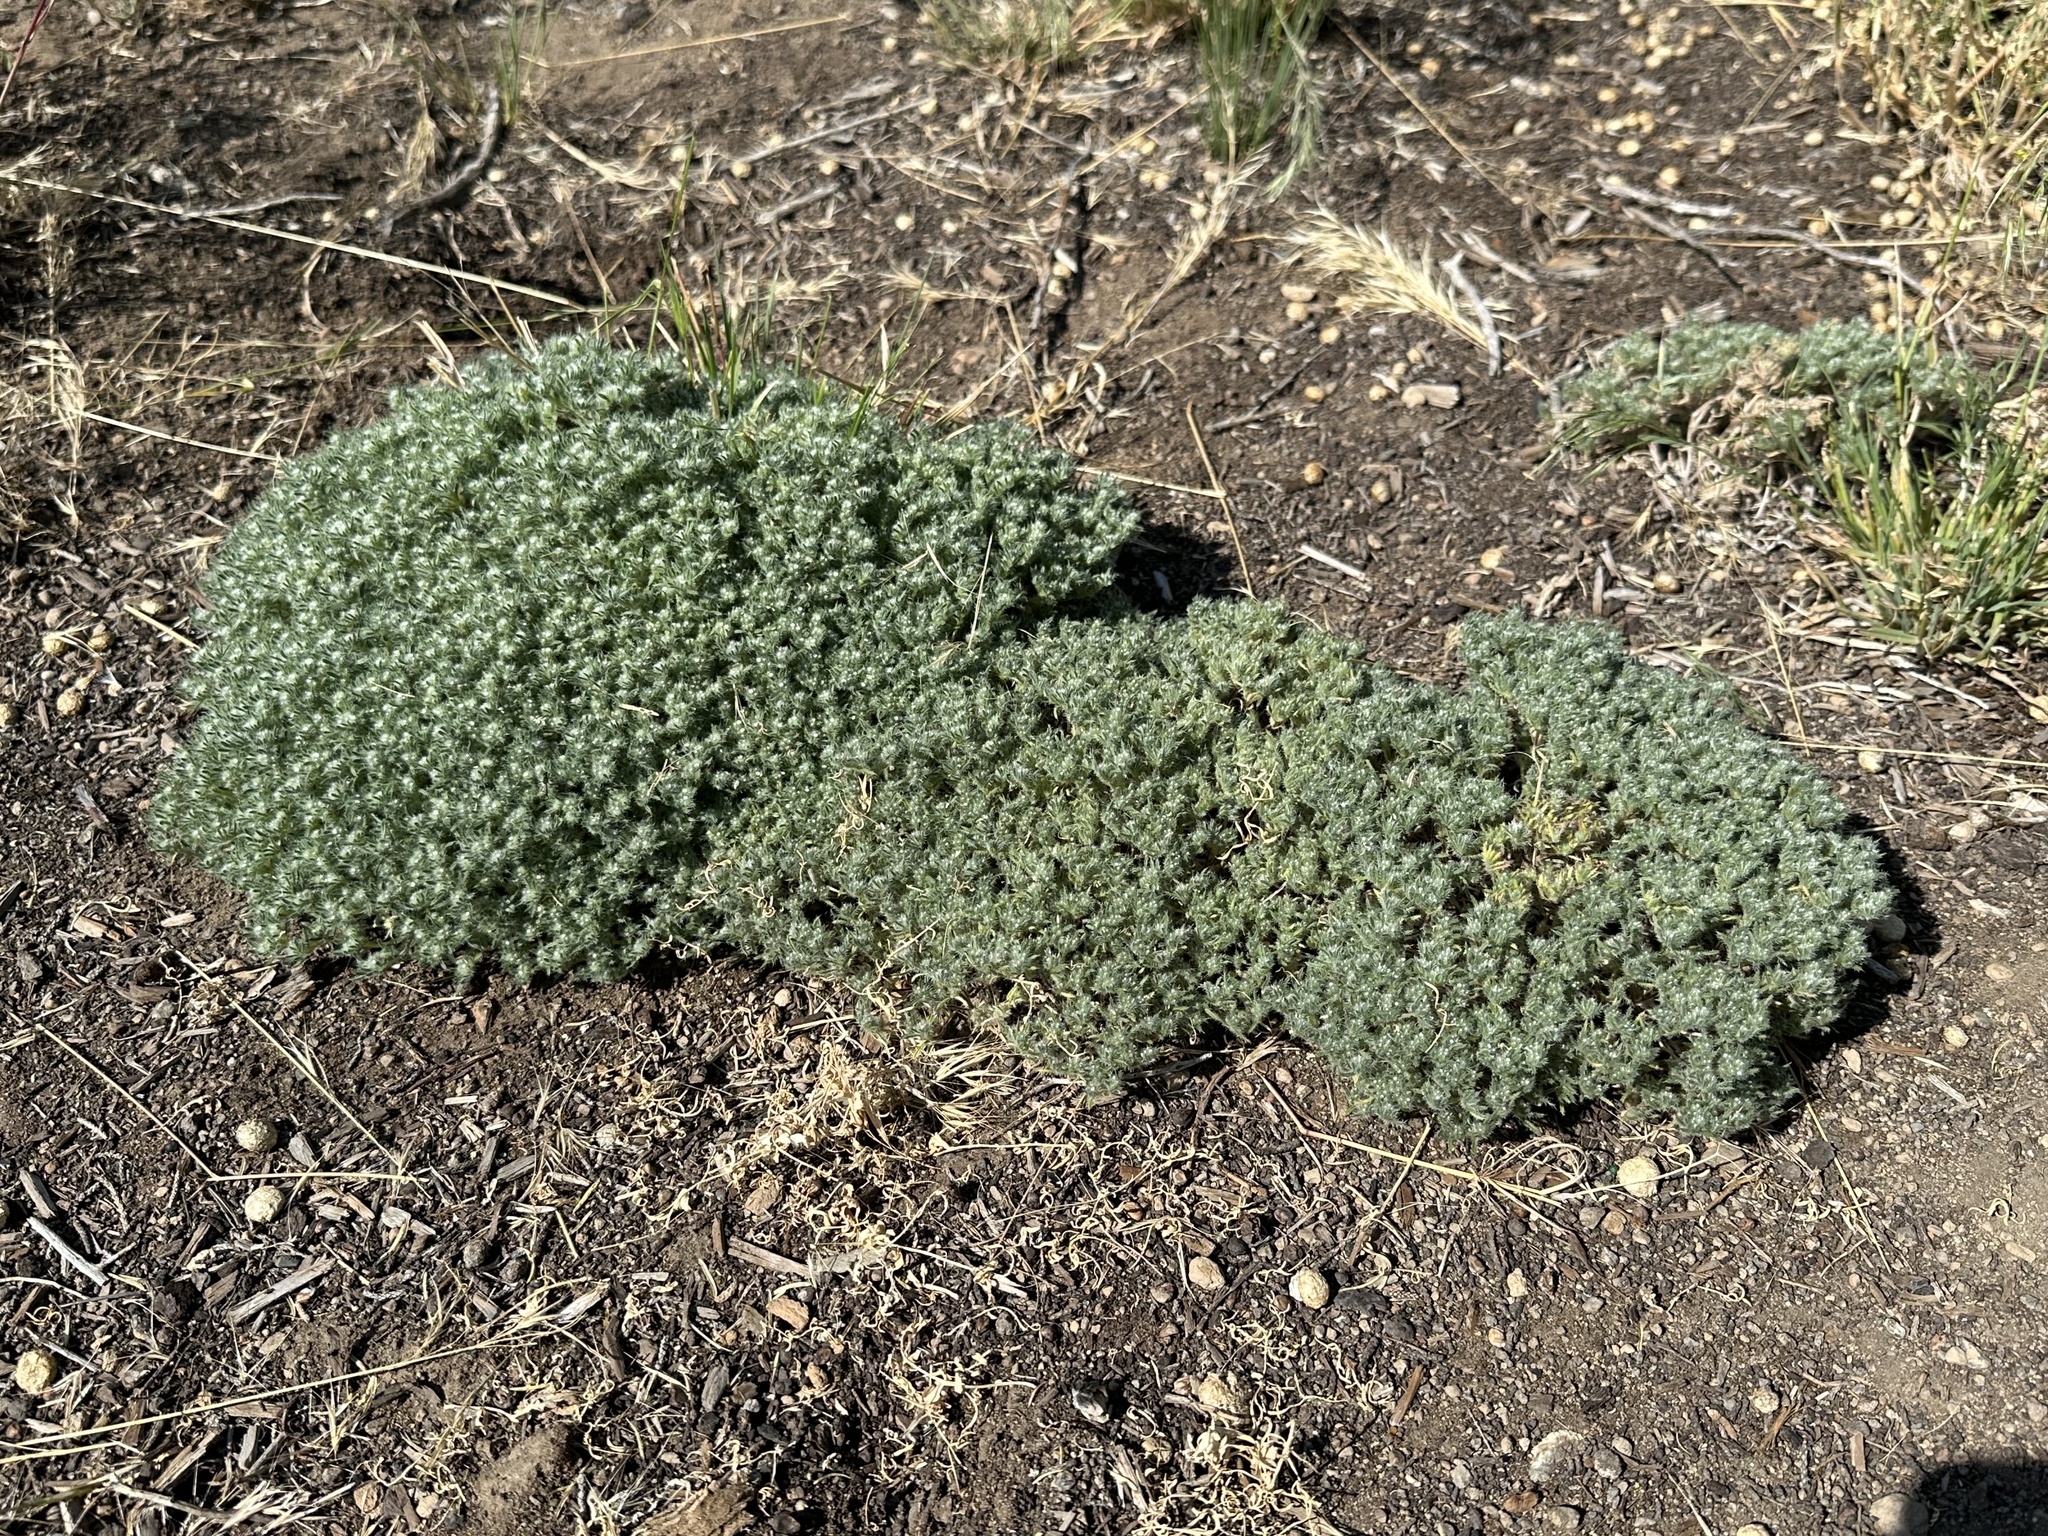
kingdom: Plantae
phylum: Tracheophyta
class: Magnoliopsida
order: Boraginales
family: Boraginaceae
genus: Greeneocharis
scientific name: Greeneocharis circumscissa
